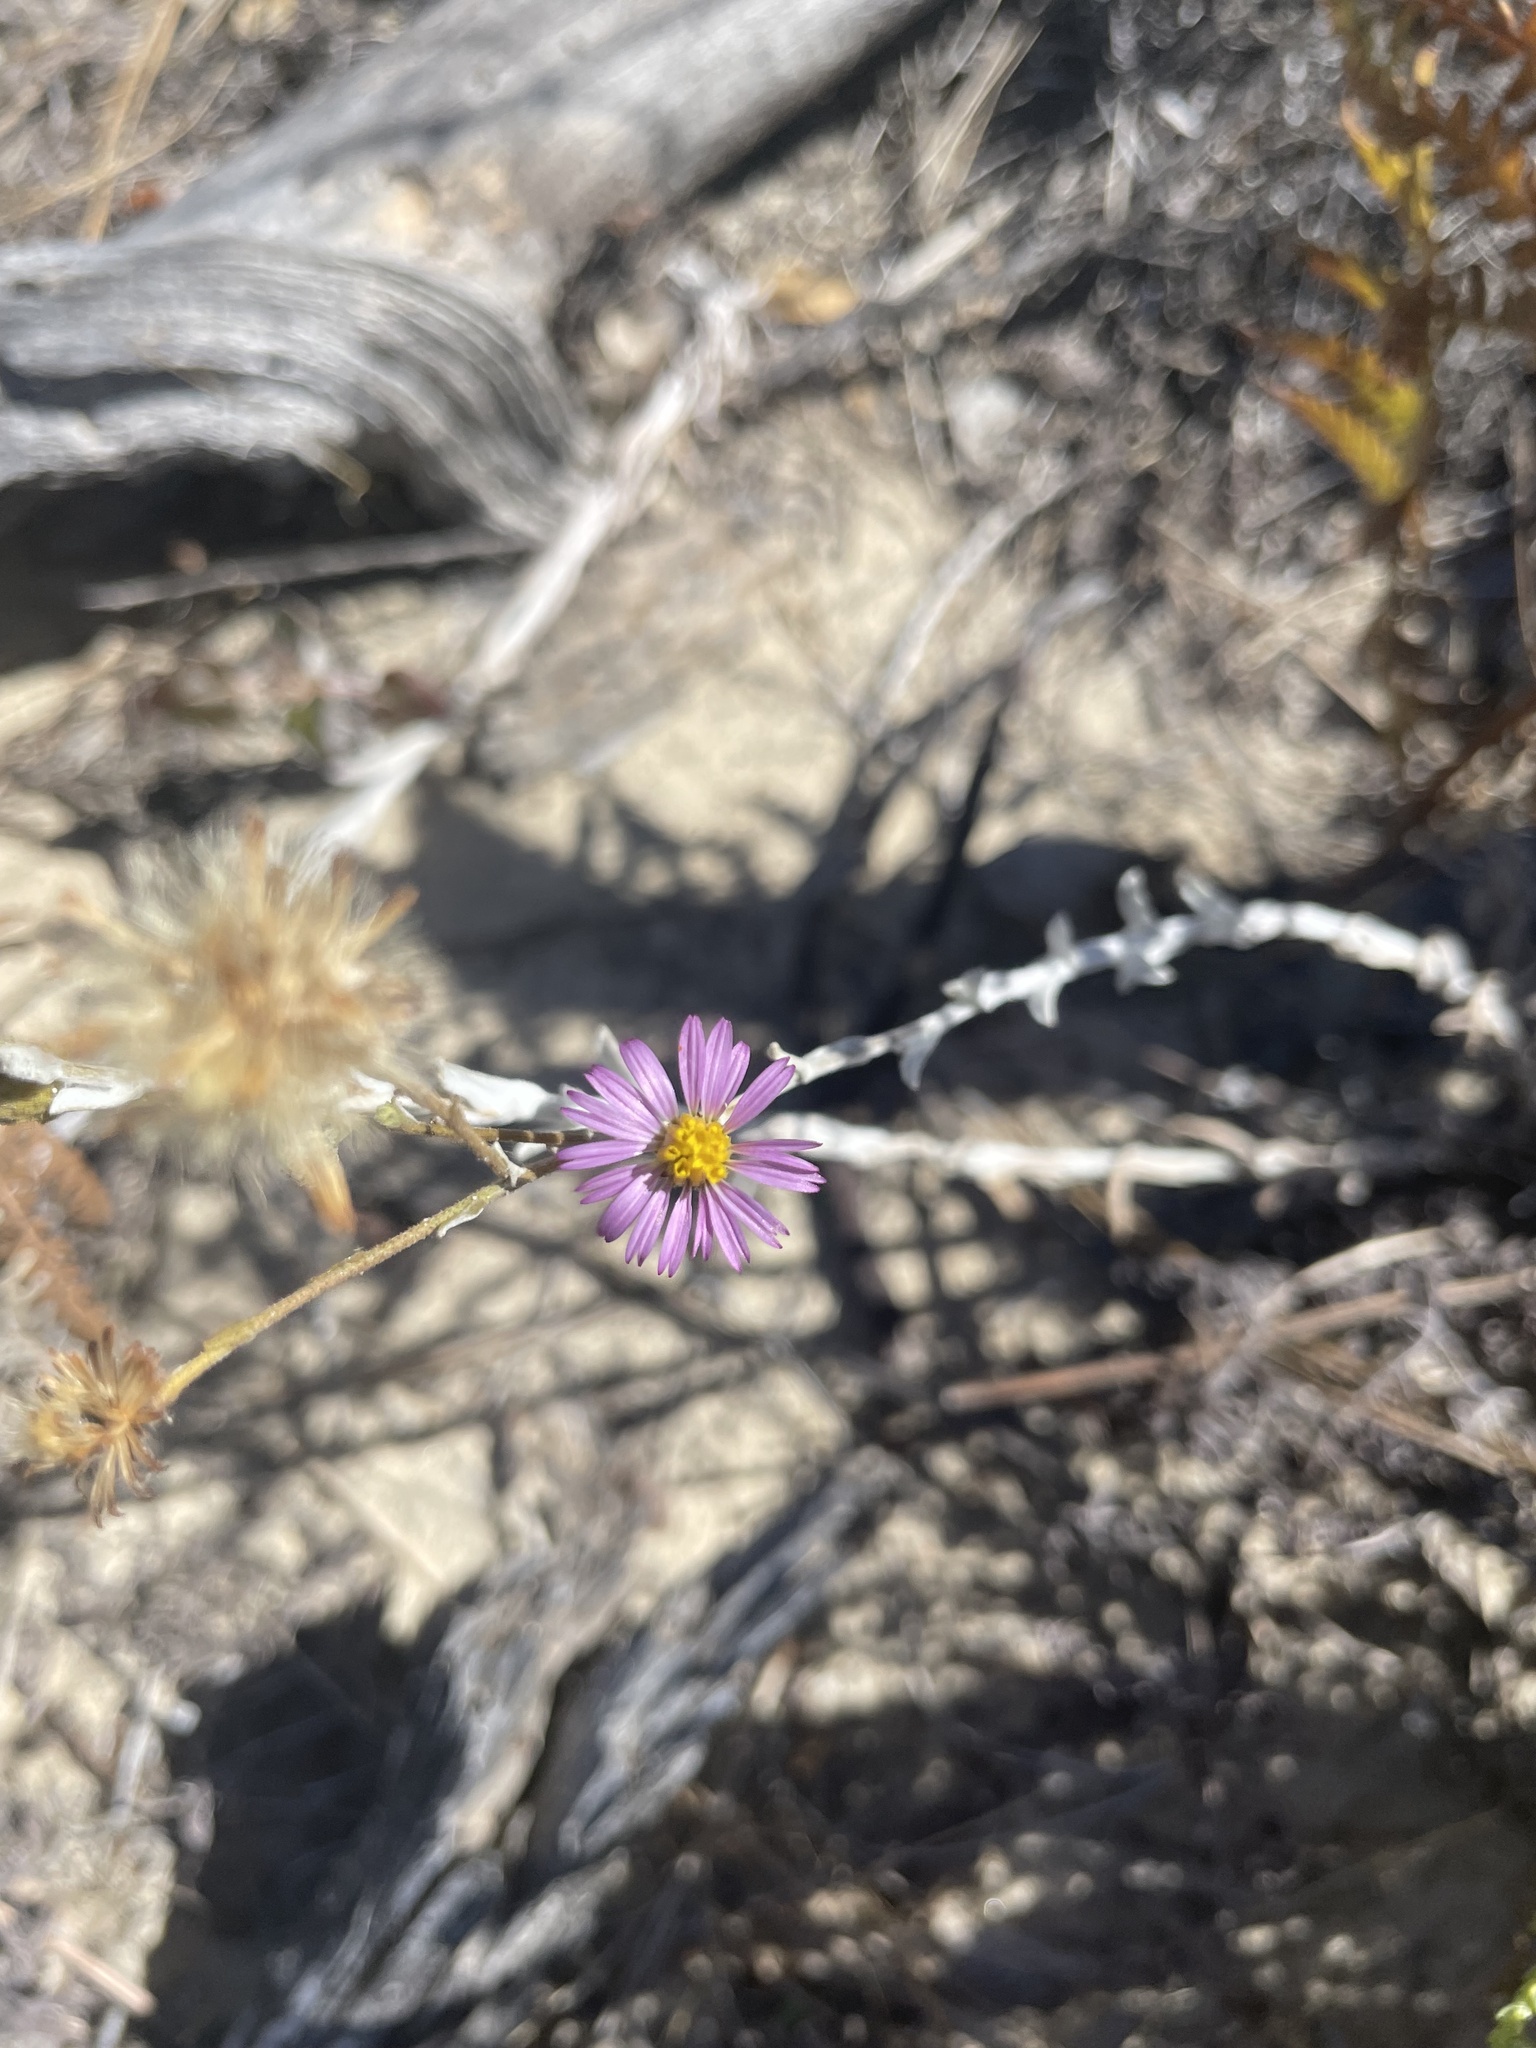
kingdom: Plantae
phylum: Tracheophyta
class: Magnoliopsida
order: Asterales
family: Asteraceae
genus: Corethrogyne
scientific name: Corethrogyne filaginifolia
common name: Sand-aster
